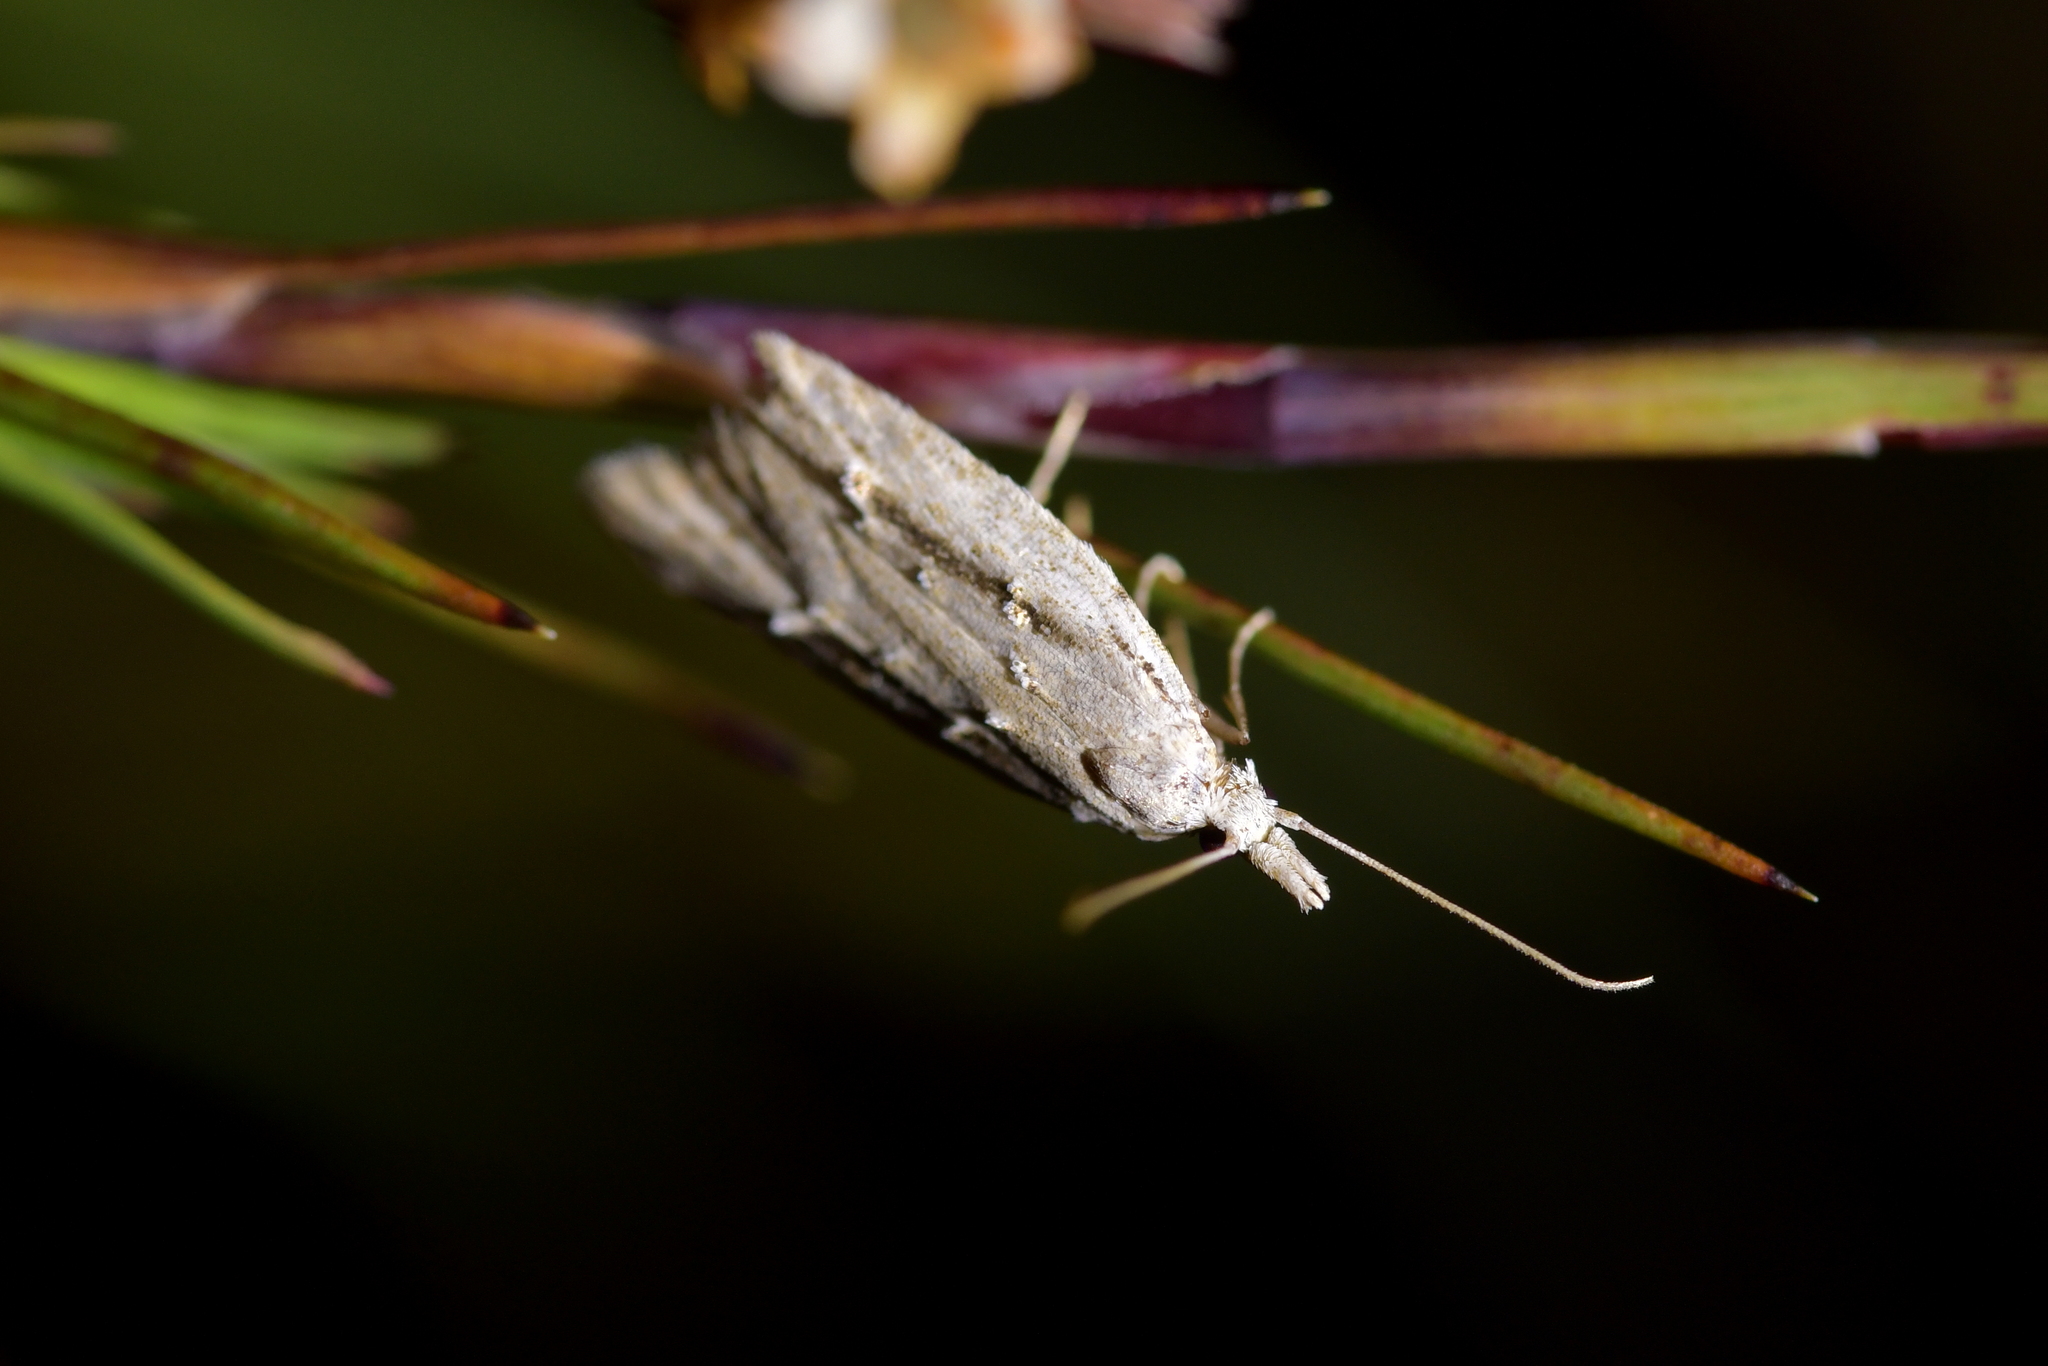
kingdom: Animalia
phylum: Arthropoda
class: Insecta
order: Lepidoptera
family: Carposinidae
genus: Carposina
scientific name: Carposina
